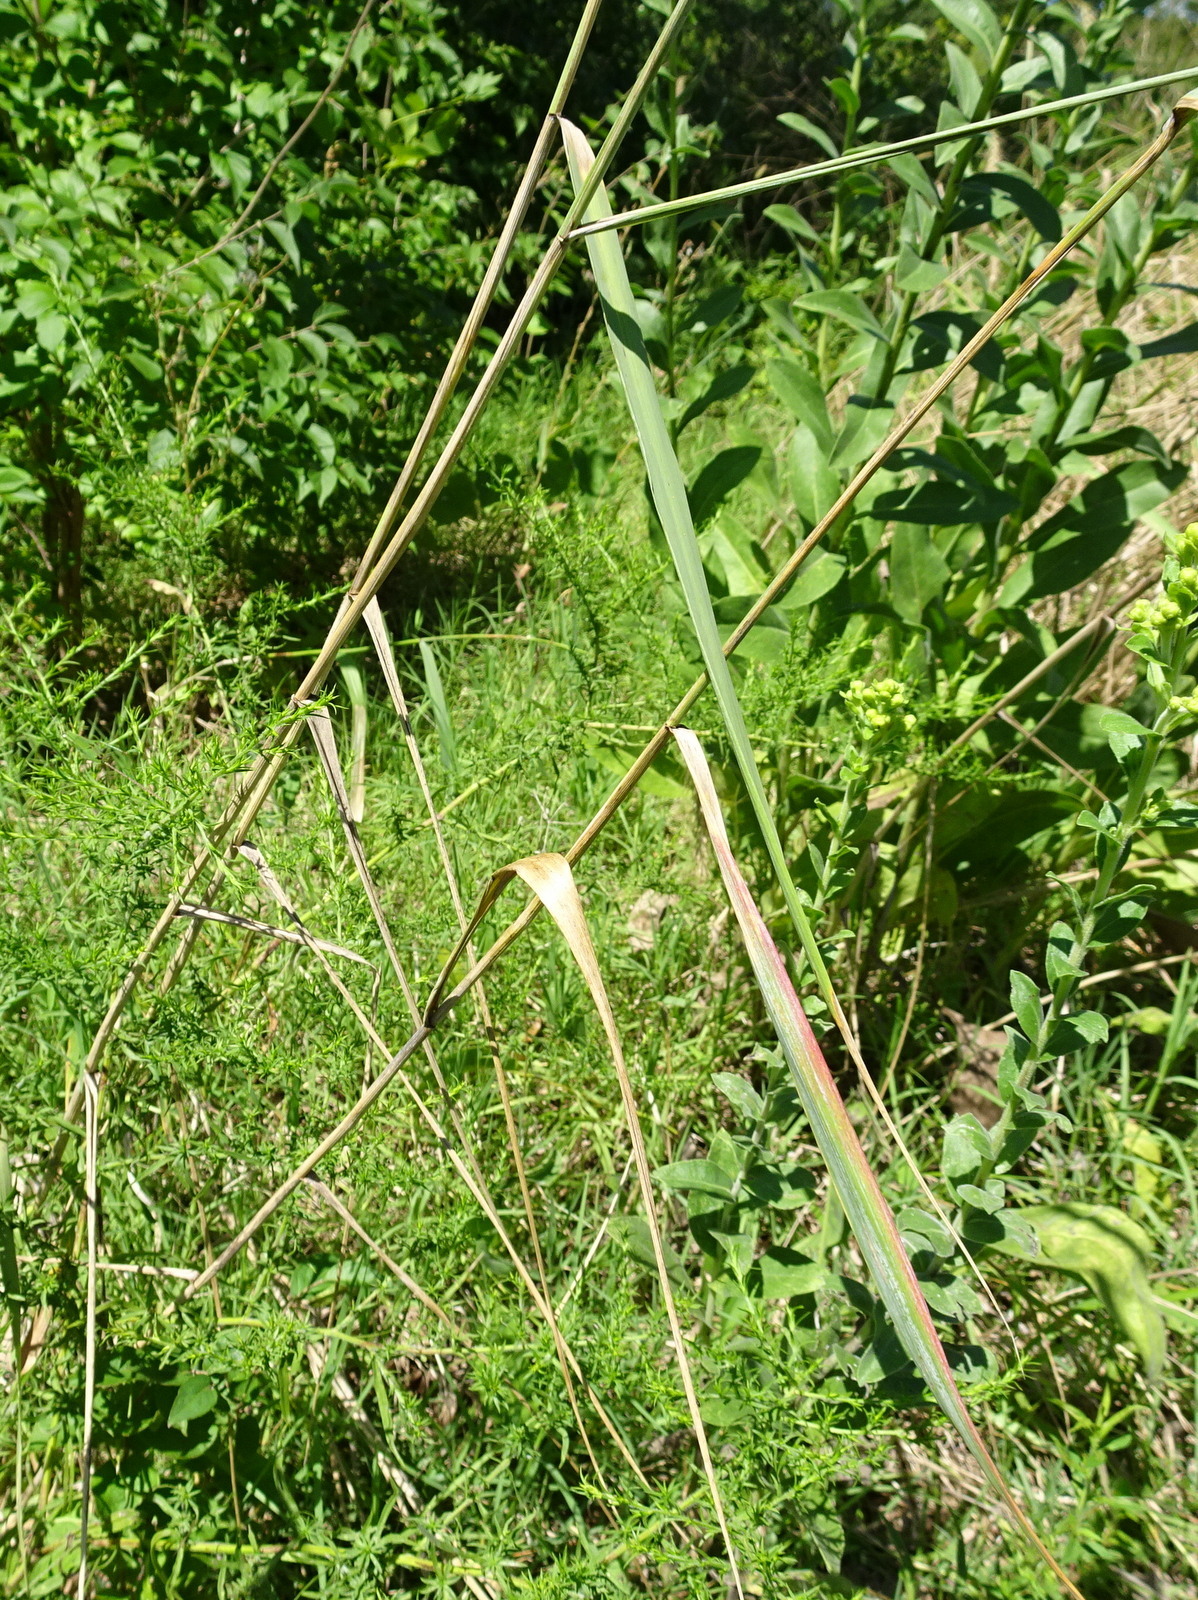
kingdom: Plantae
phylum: Tracheophyta
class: Liliopsida
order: Poales
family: Poaceae
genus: Elymus
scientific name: Elymus canadensis
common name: Canada wild rye
